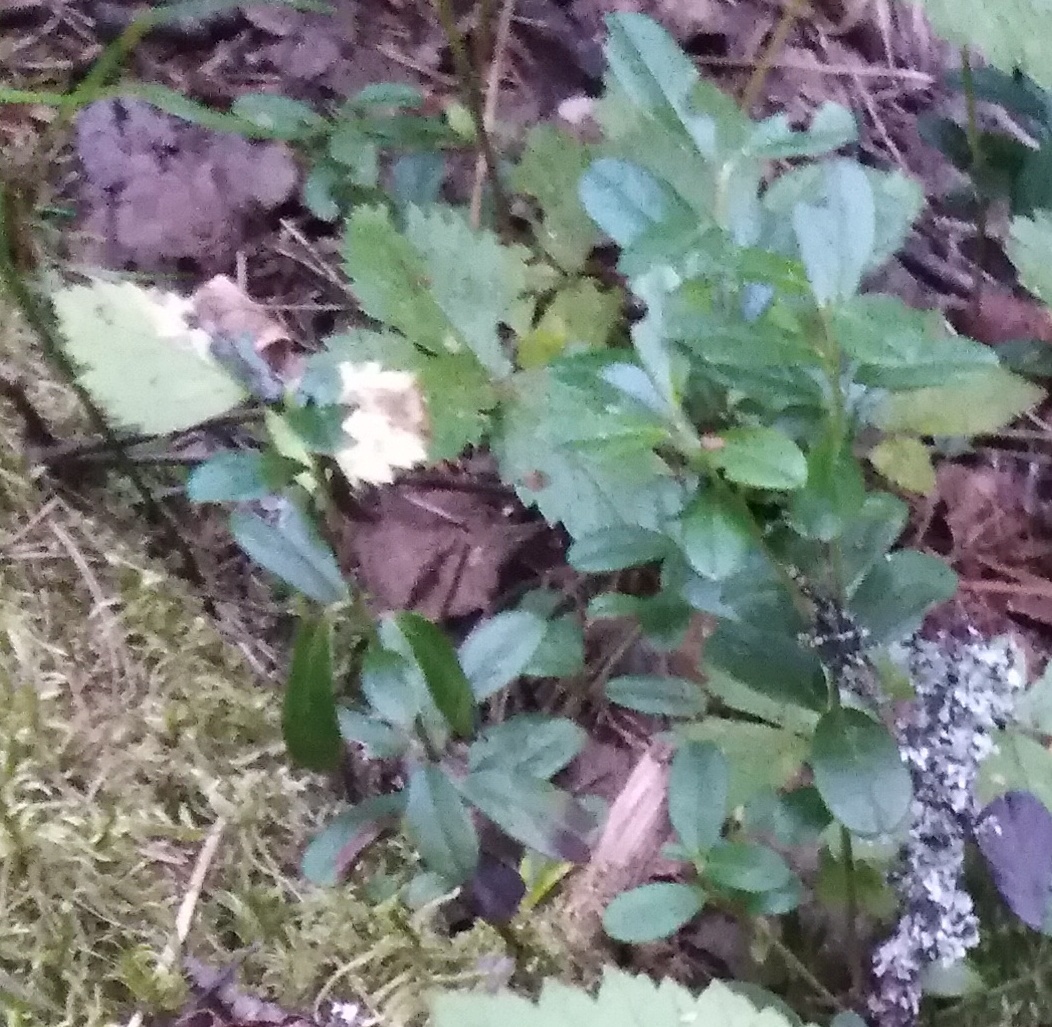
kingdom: Plantae
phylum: Tracheophyta
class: Magnoliopsida
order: Ericales
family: Ericaceae
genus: Vaccinium
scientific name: Vaccinium vitis-idaea
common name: Cowberry
